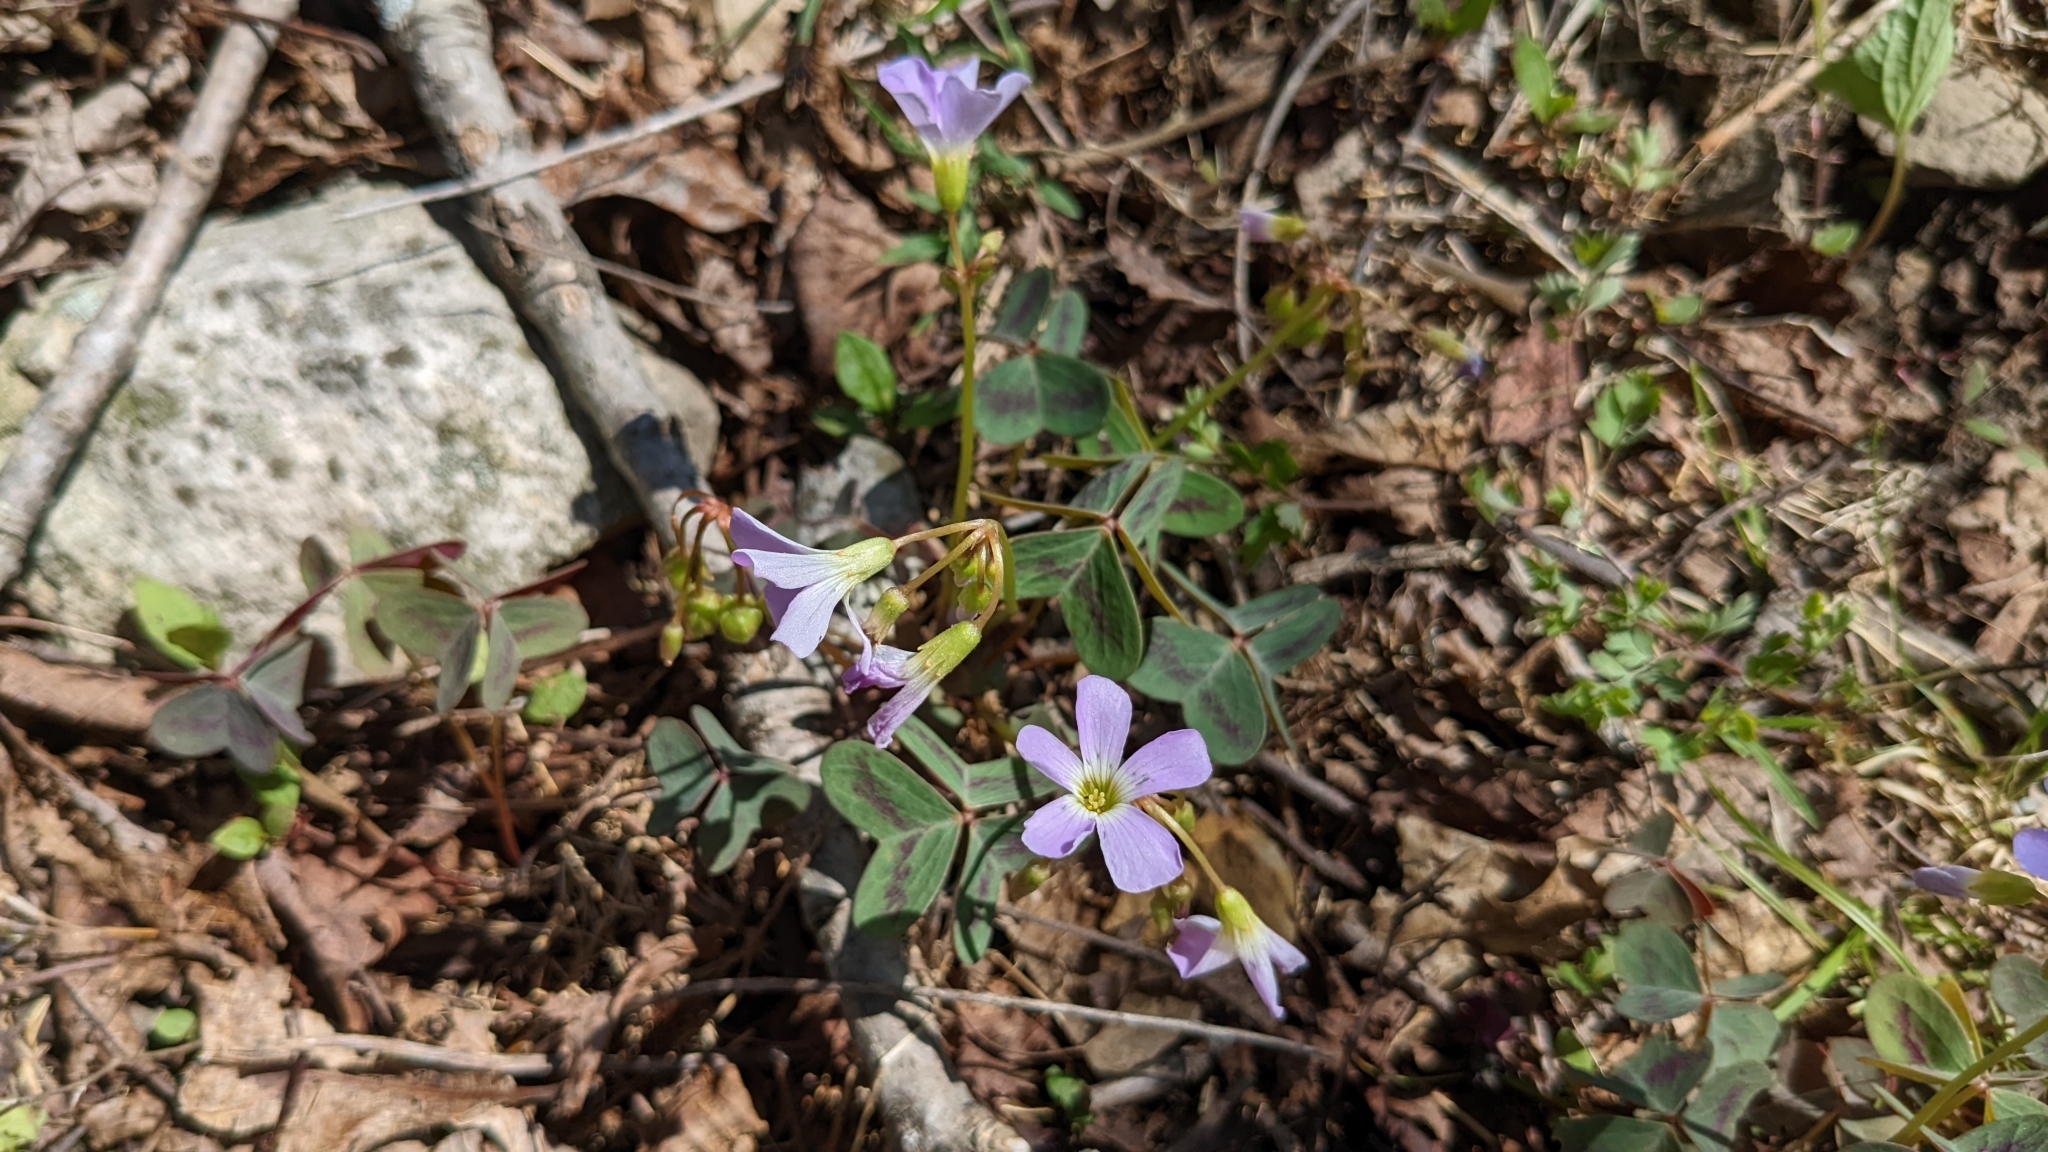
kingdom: Plantae
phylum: Tracheophyta
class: Magnoliopsida
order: Oxalidales
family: Oxalidaceae
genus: Oxalis
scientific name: Oxalis violacea
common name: Violet wood-sorrel
